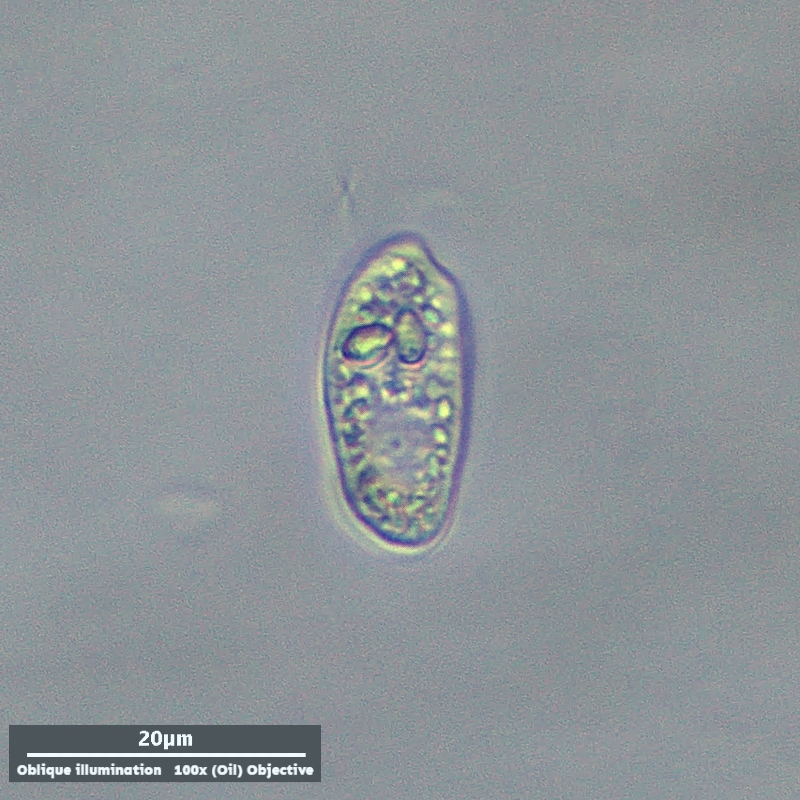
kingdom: Chromista
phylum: Cryptophyta
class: Cryptophyceae
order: Cryptomonadales
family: Cryptomonadaceae
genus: Cryptomonas
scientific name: Cryptomonas paramaecium
